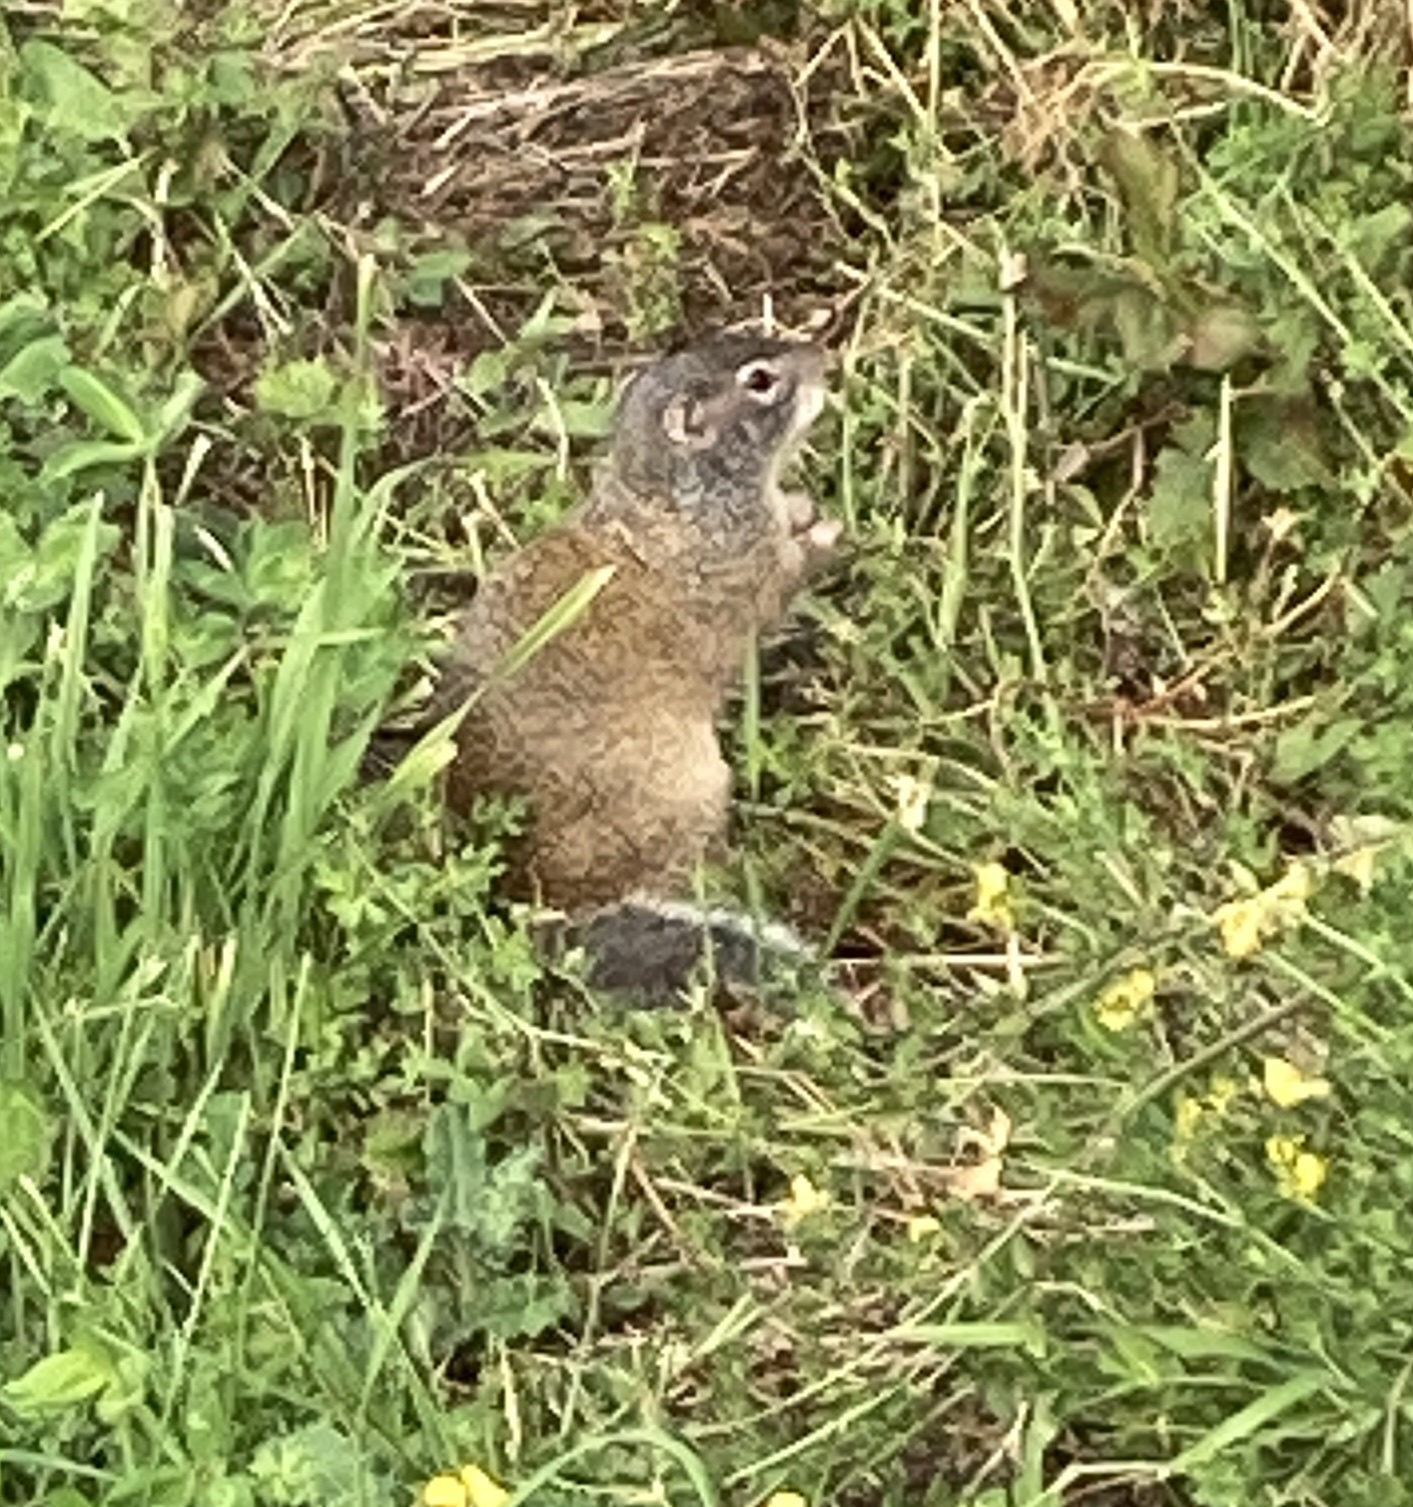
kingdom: Animalia
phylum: Chordata
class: Mammalia
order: Rodentia
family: Sciuridae
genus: Poliocitellus
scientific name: Poliocitellus franklinii
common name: Franklin's ground squirrel
